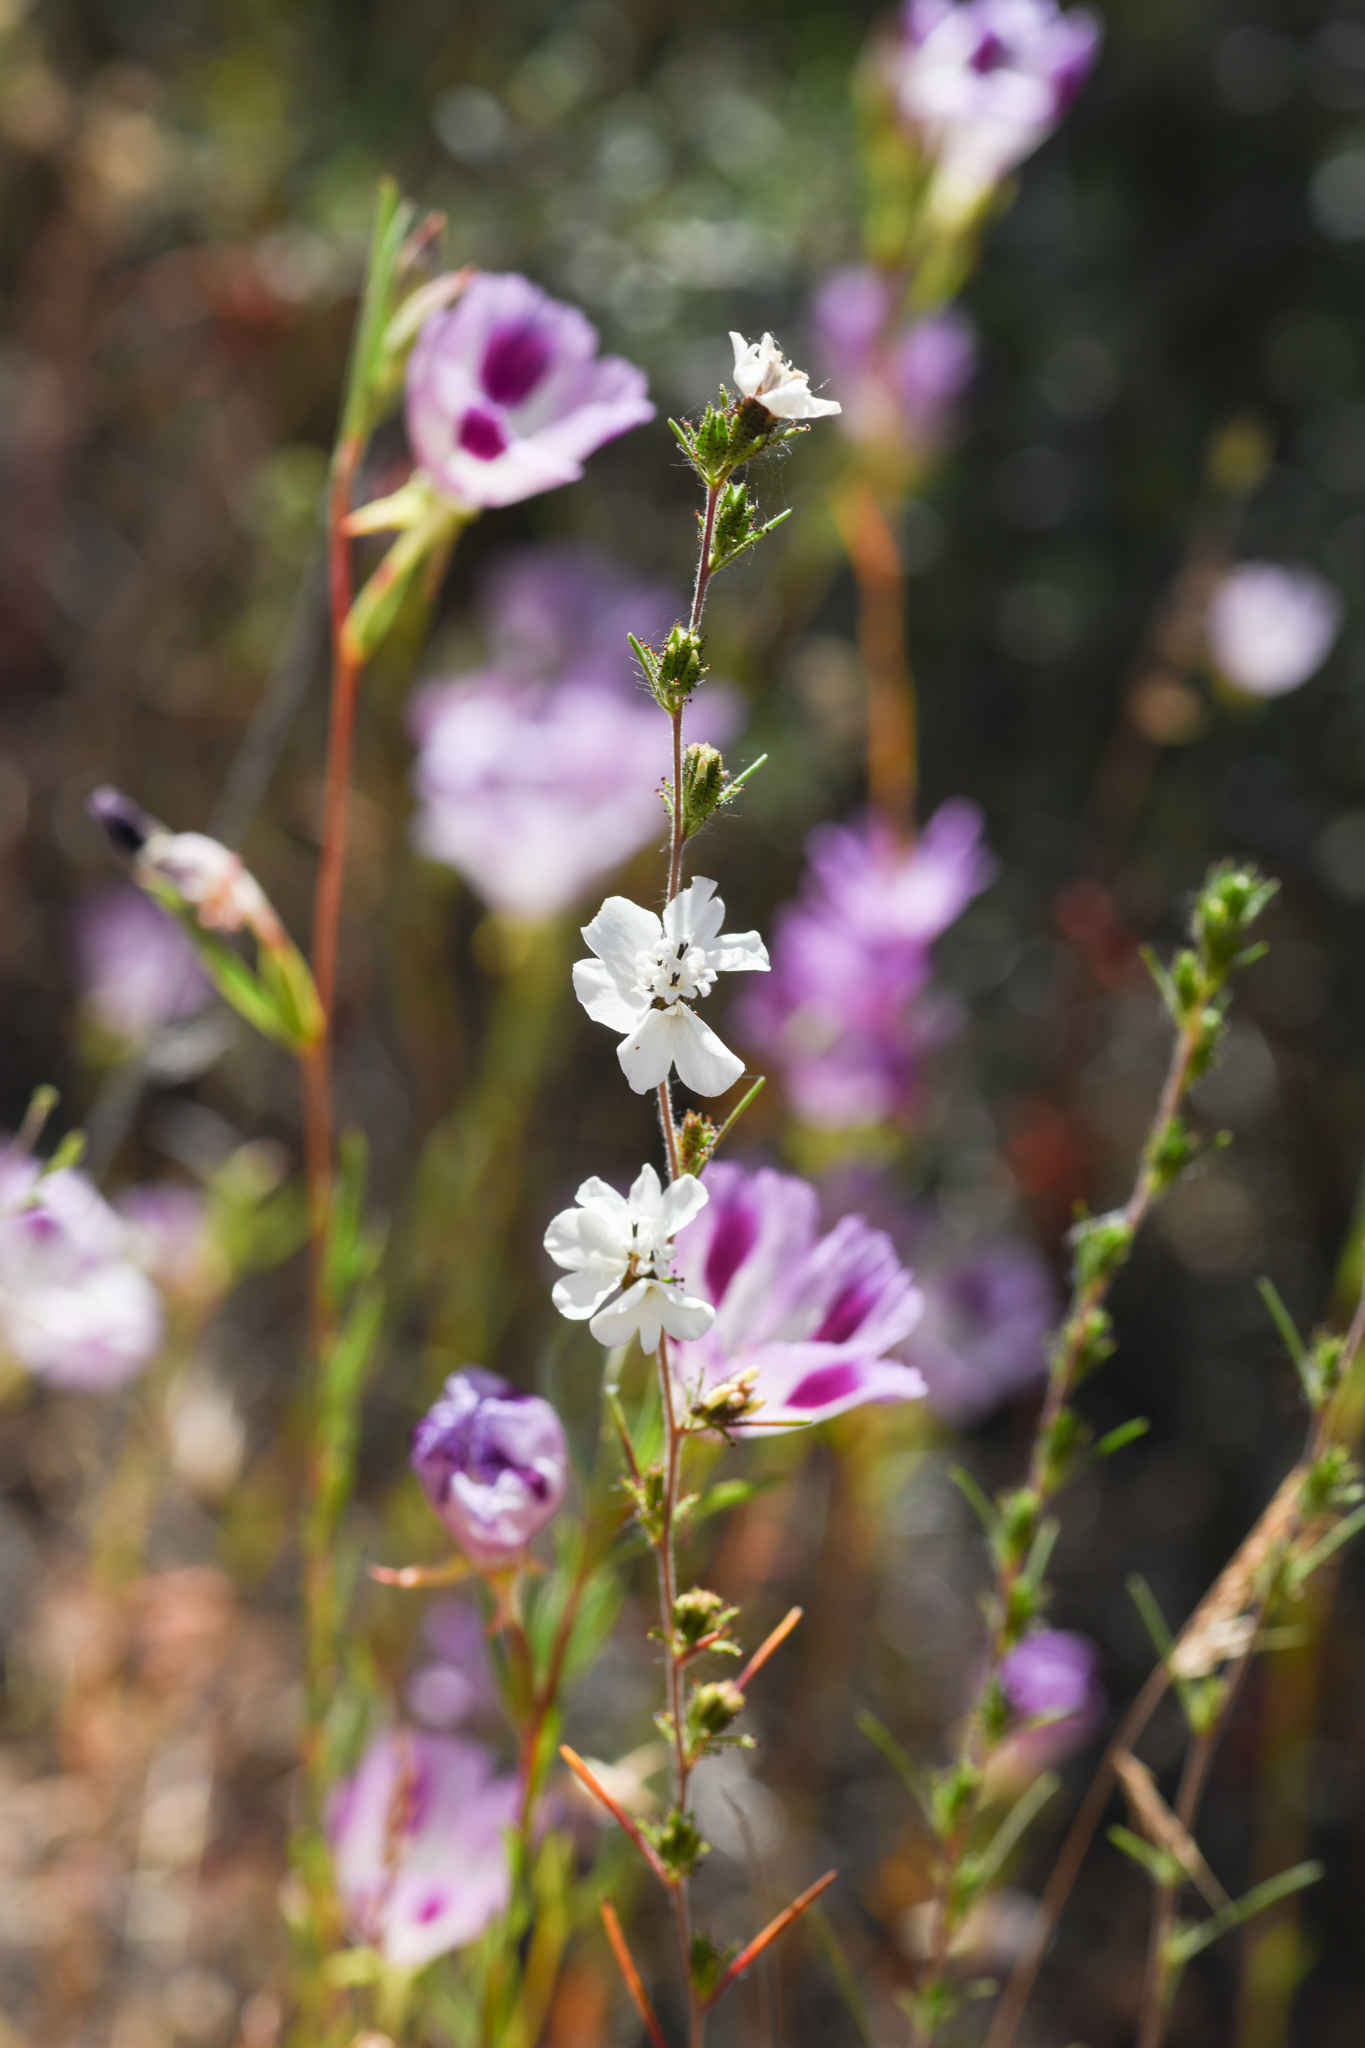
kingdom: Plantae
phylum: Tracheophyta
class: Magnoliopsida
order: Asterales
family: Asteraceae
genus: Calycadenia
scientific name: Calycadenia multiglandulosa
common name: Sticky calycadenia
